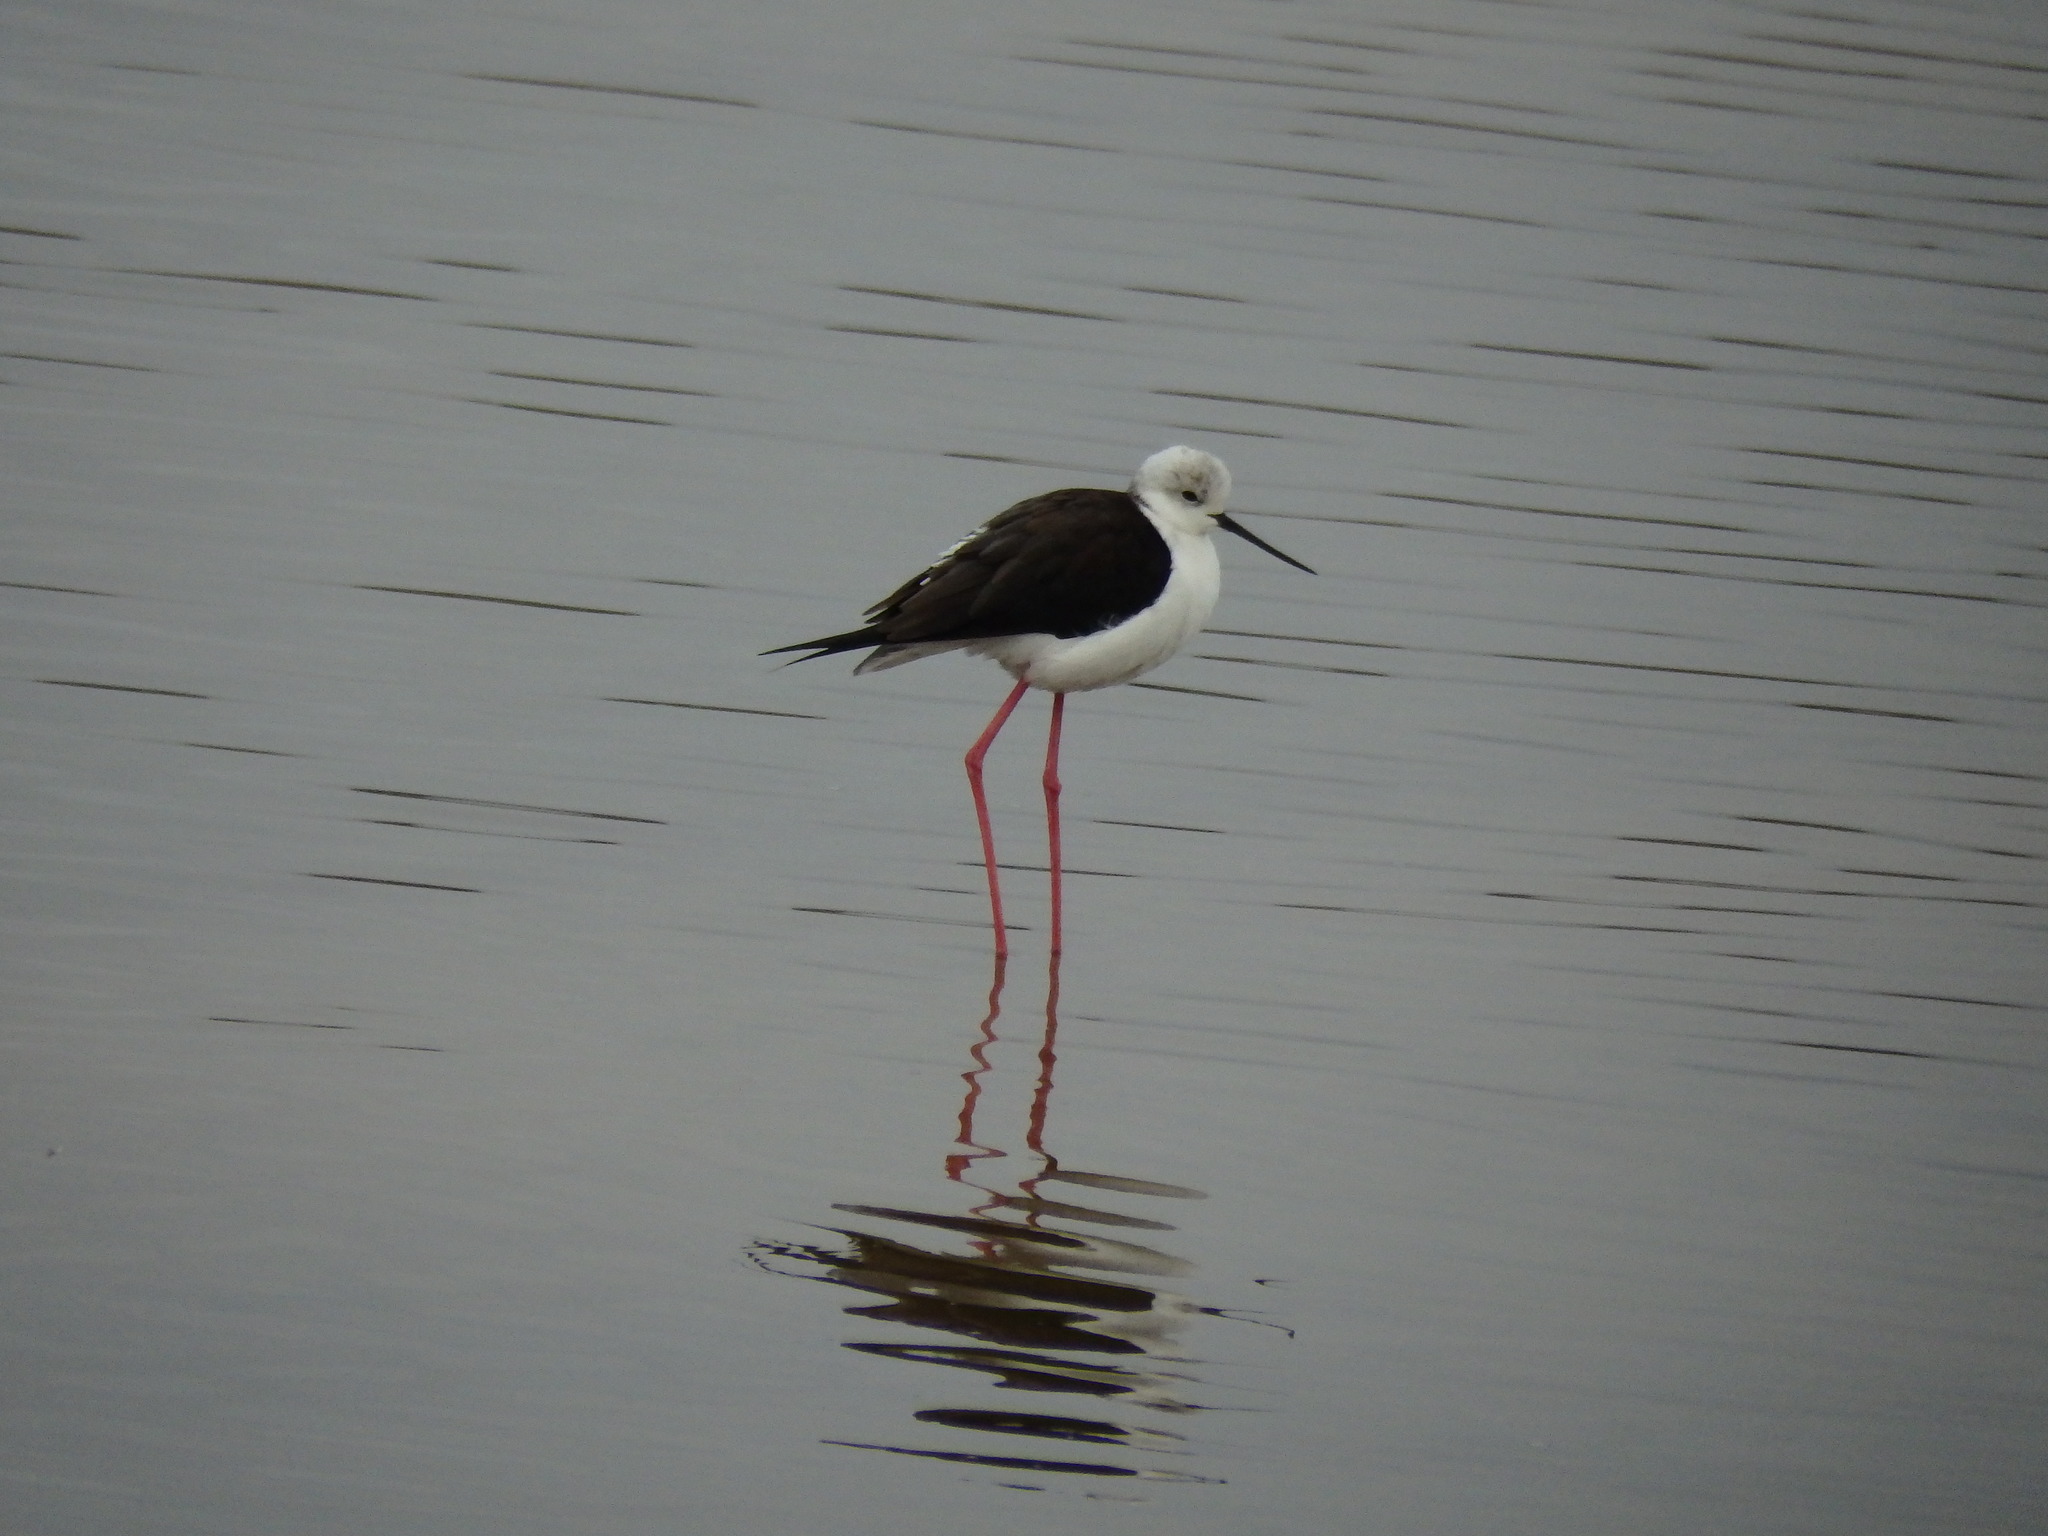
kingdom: Animalia
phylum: Chordata
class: Aves
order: Charadriiformes
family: Recurvirostridae
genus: Himantopus
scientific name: Himantopus himantopus
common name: Black-winged stilt
